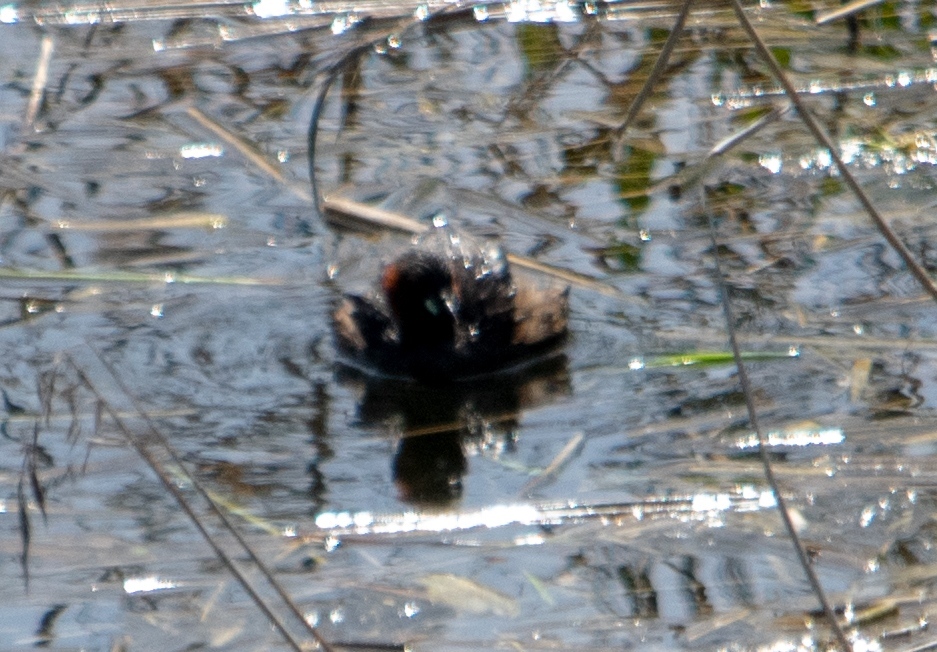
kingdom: Animalia
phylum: Chordata
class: Aves
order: Podicipediformes
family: Podicipedidae
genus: Tachybaptus
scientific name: Tachybaptus ruficollis
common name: Little grebe
